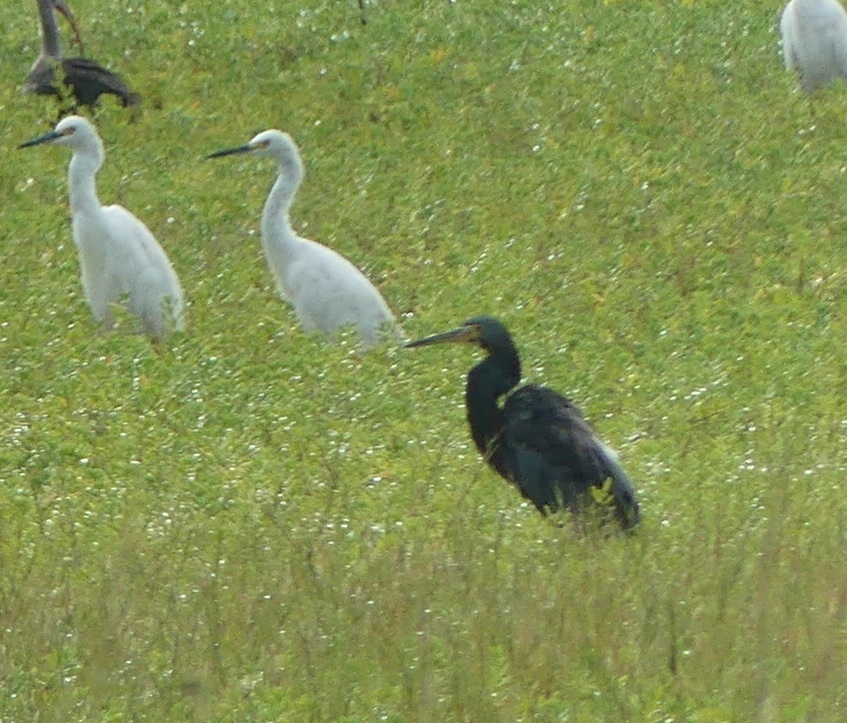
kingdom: Animalia
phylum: Chordata
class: Aves
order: Pelecaniformes
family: Ardeidae
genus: Egretta
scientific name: Egretta caerulea
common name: Little blue heron
